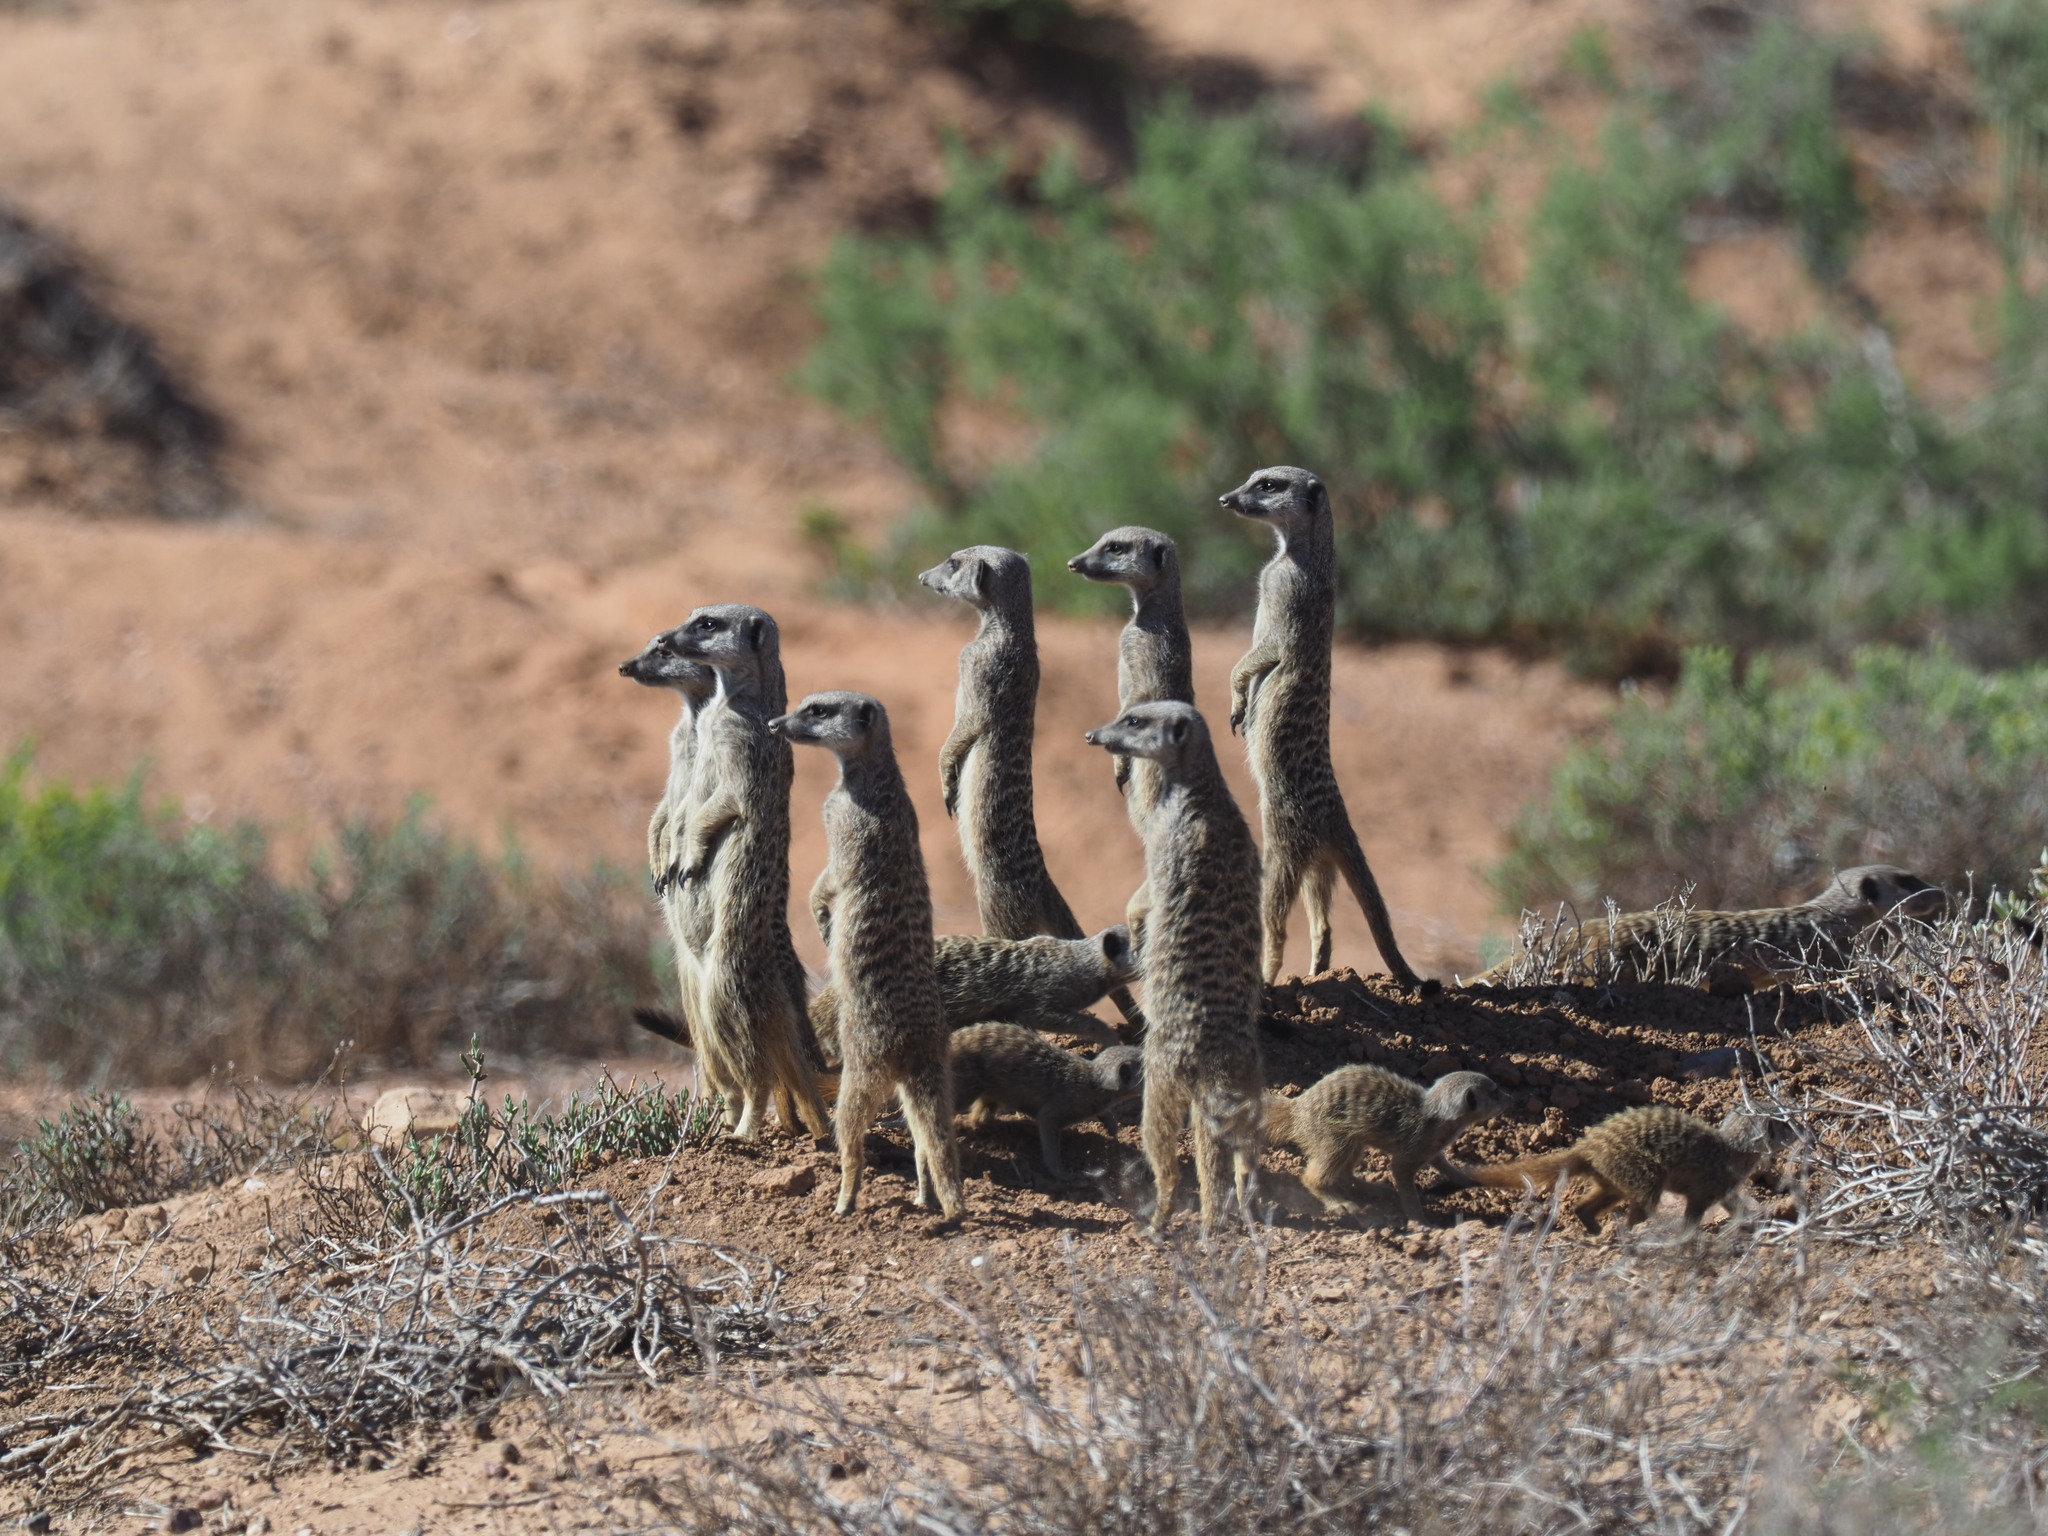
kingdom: Animalia
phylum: Chordata
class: Mammalia
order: Carnivora
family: Herpestidae
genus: Suricata
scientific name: Suricata suricatta
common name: Meerkat
